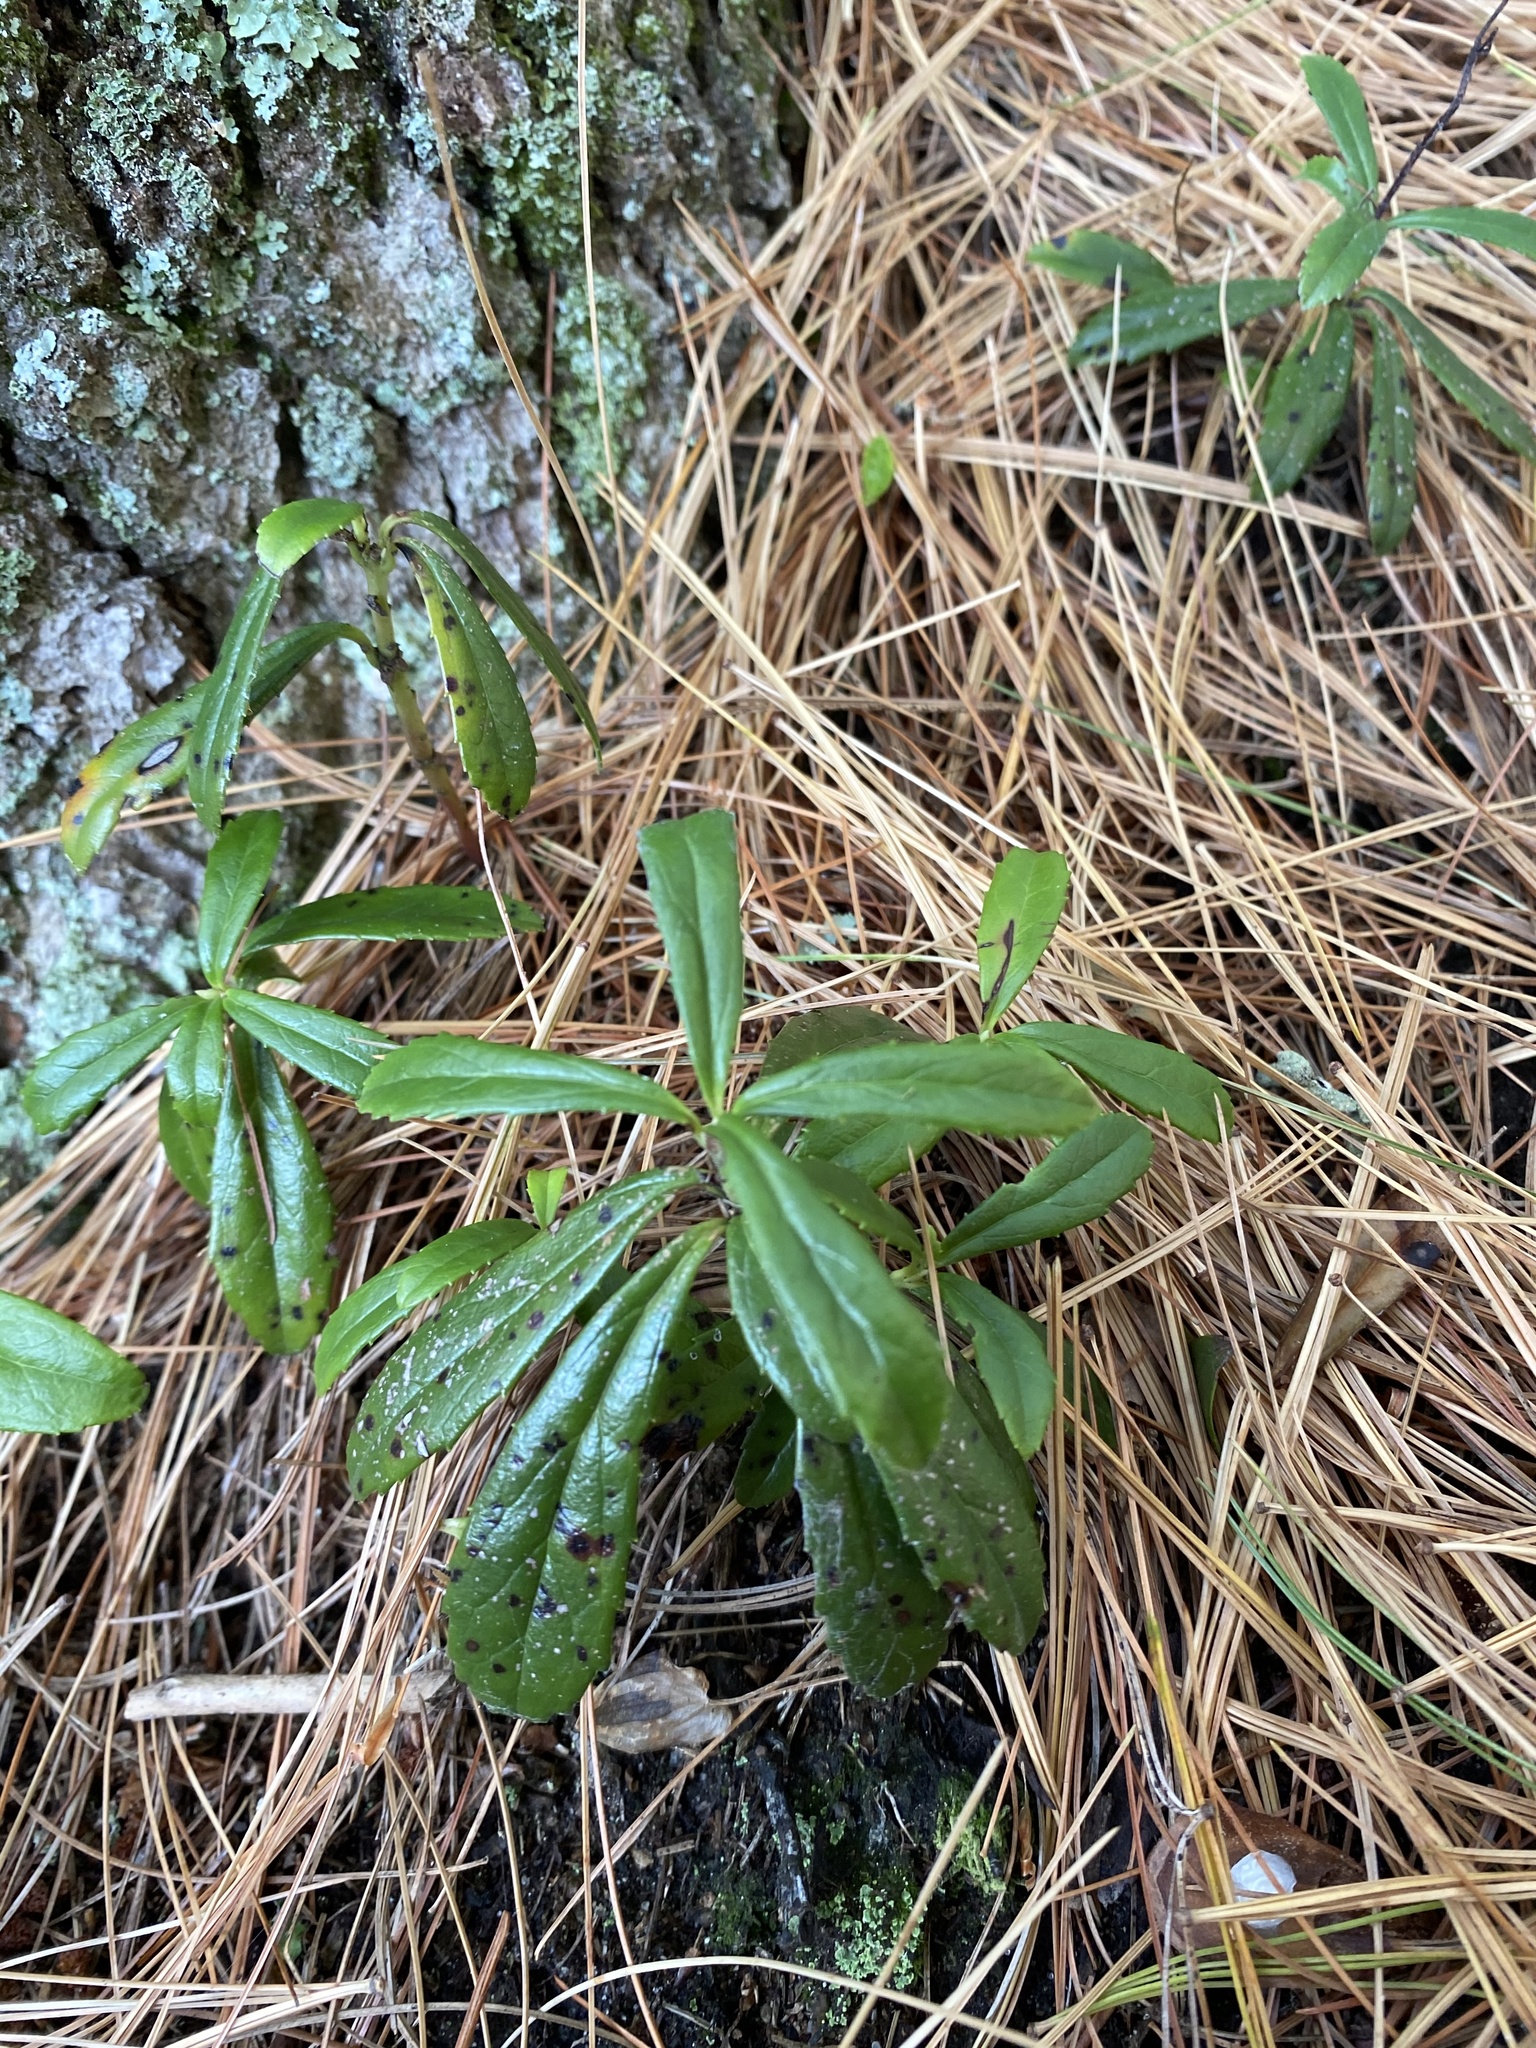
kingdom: Plantae
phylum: Tracheophyta
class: Magnoliopsida
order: Ericales
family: Ericaceae
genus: Chimaphila
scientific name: Chimaphila umbellata
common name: Pipsissewa
